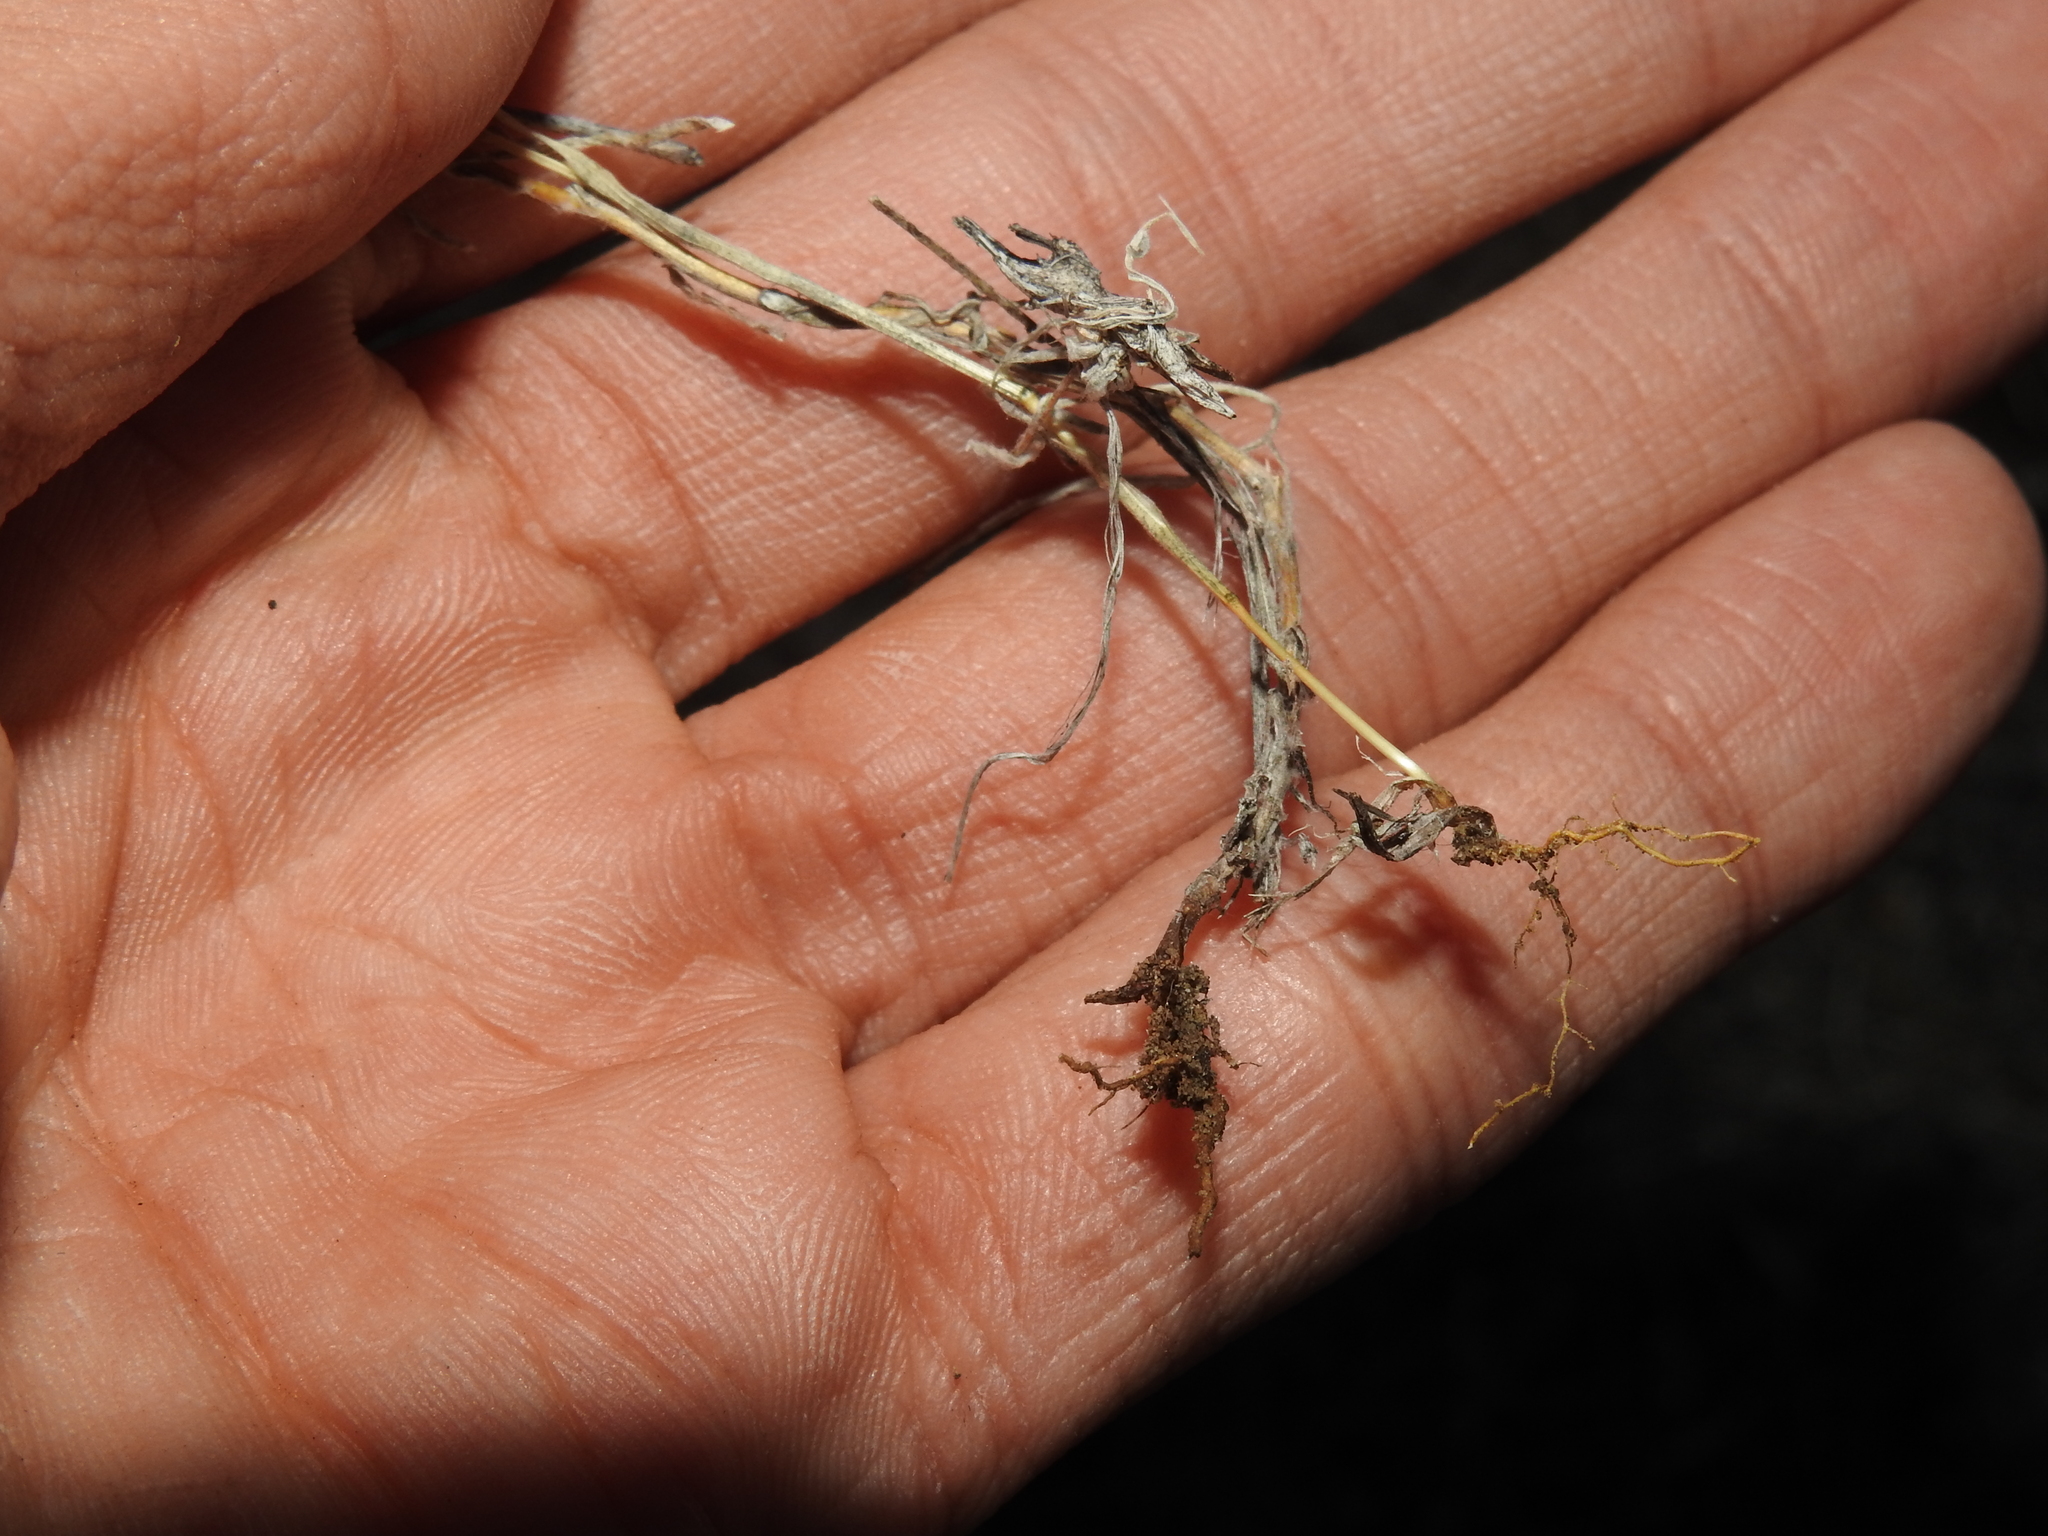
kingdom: Plantae
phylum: Tracheophyta
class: Magnoliopsida
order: Asterales
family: Asteraceae
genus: Logfia
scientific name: Logfia californica
